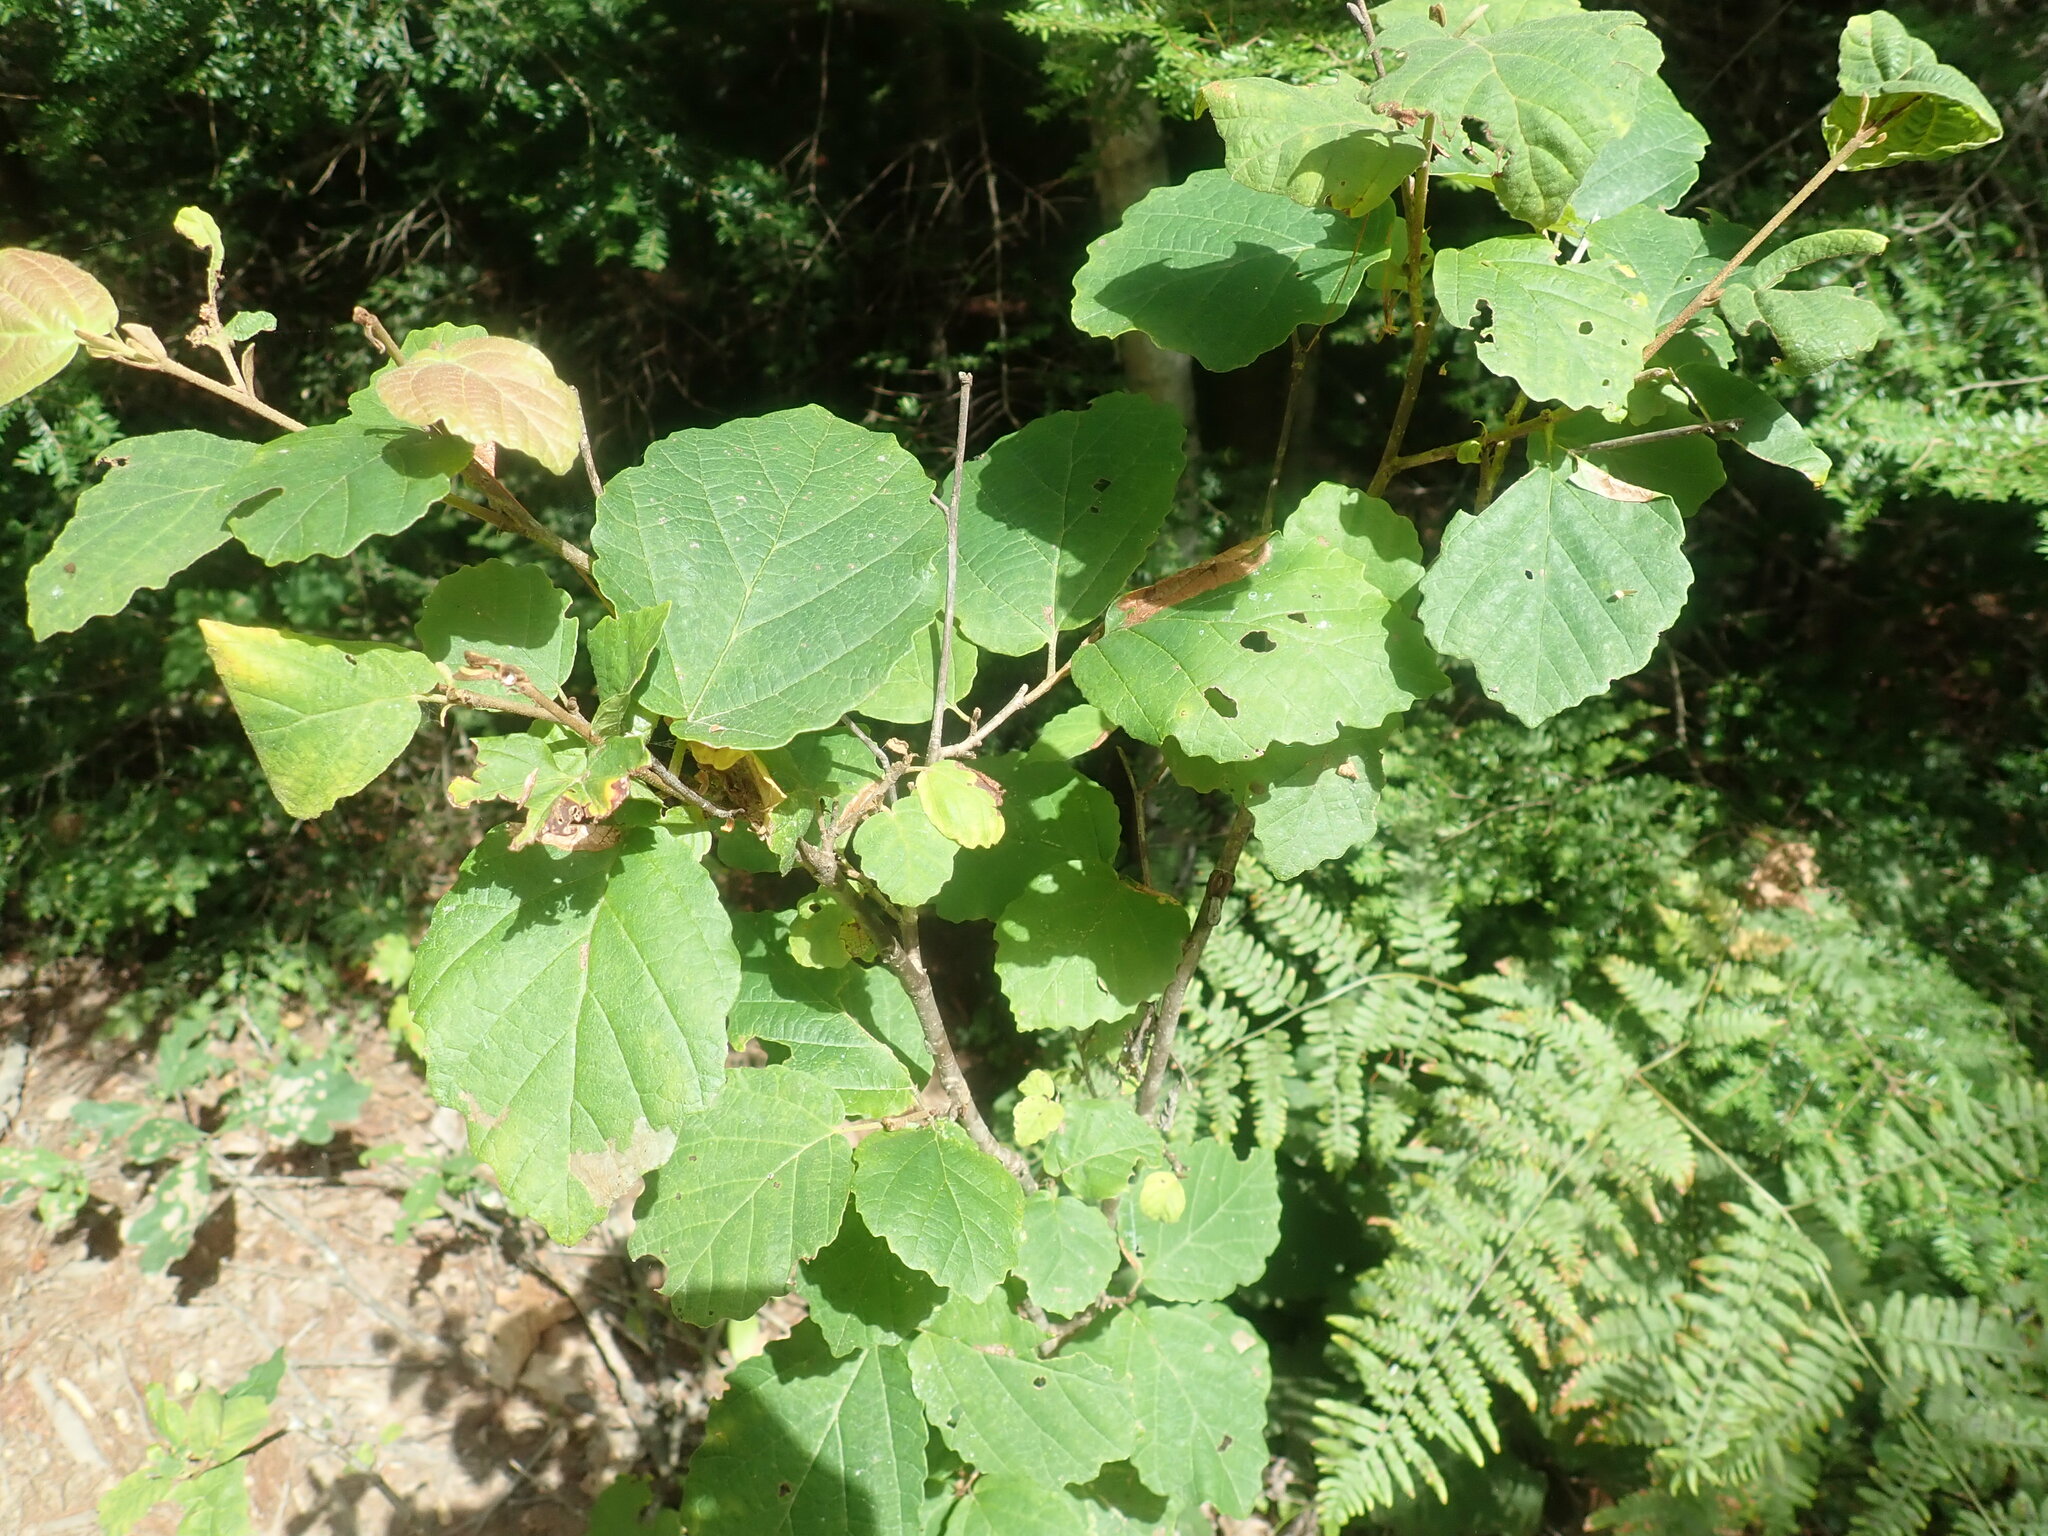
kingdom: Plantae
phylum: Tracheophyta
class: Magnoliopsida
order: Saxifragales
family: Hamamelidaceae
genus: Hamamelis
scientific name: Hamamelis virginiana
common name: Witch-hazel
